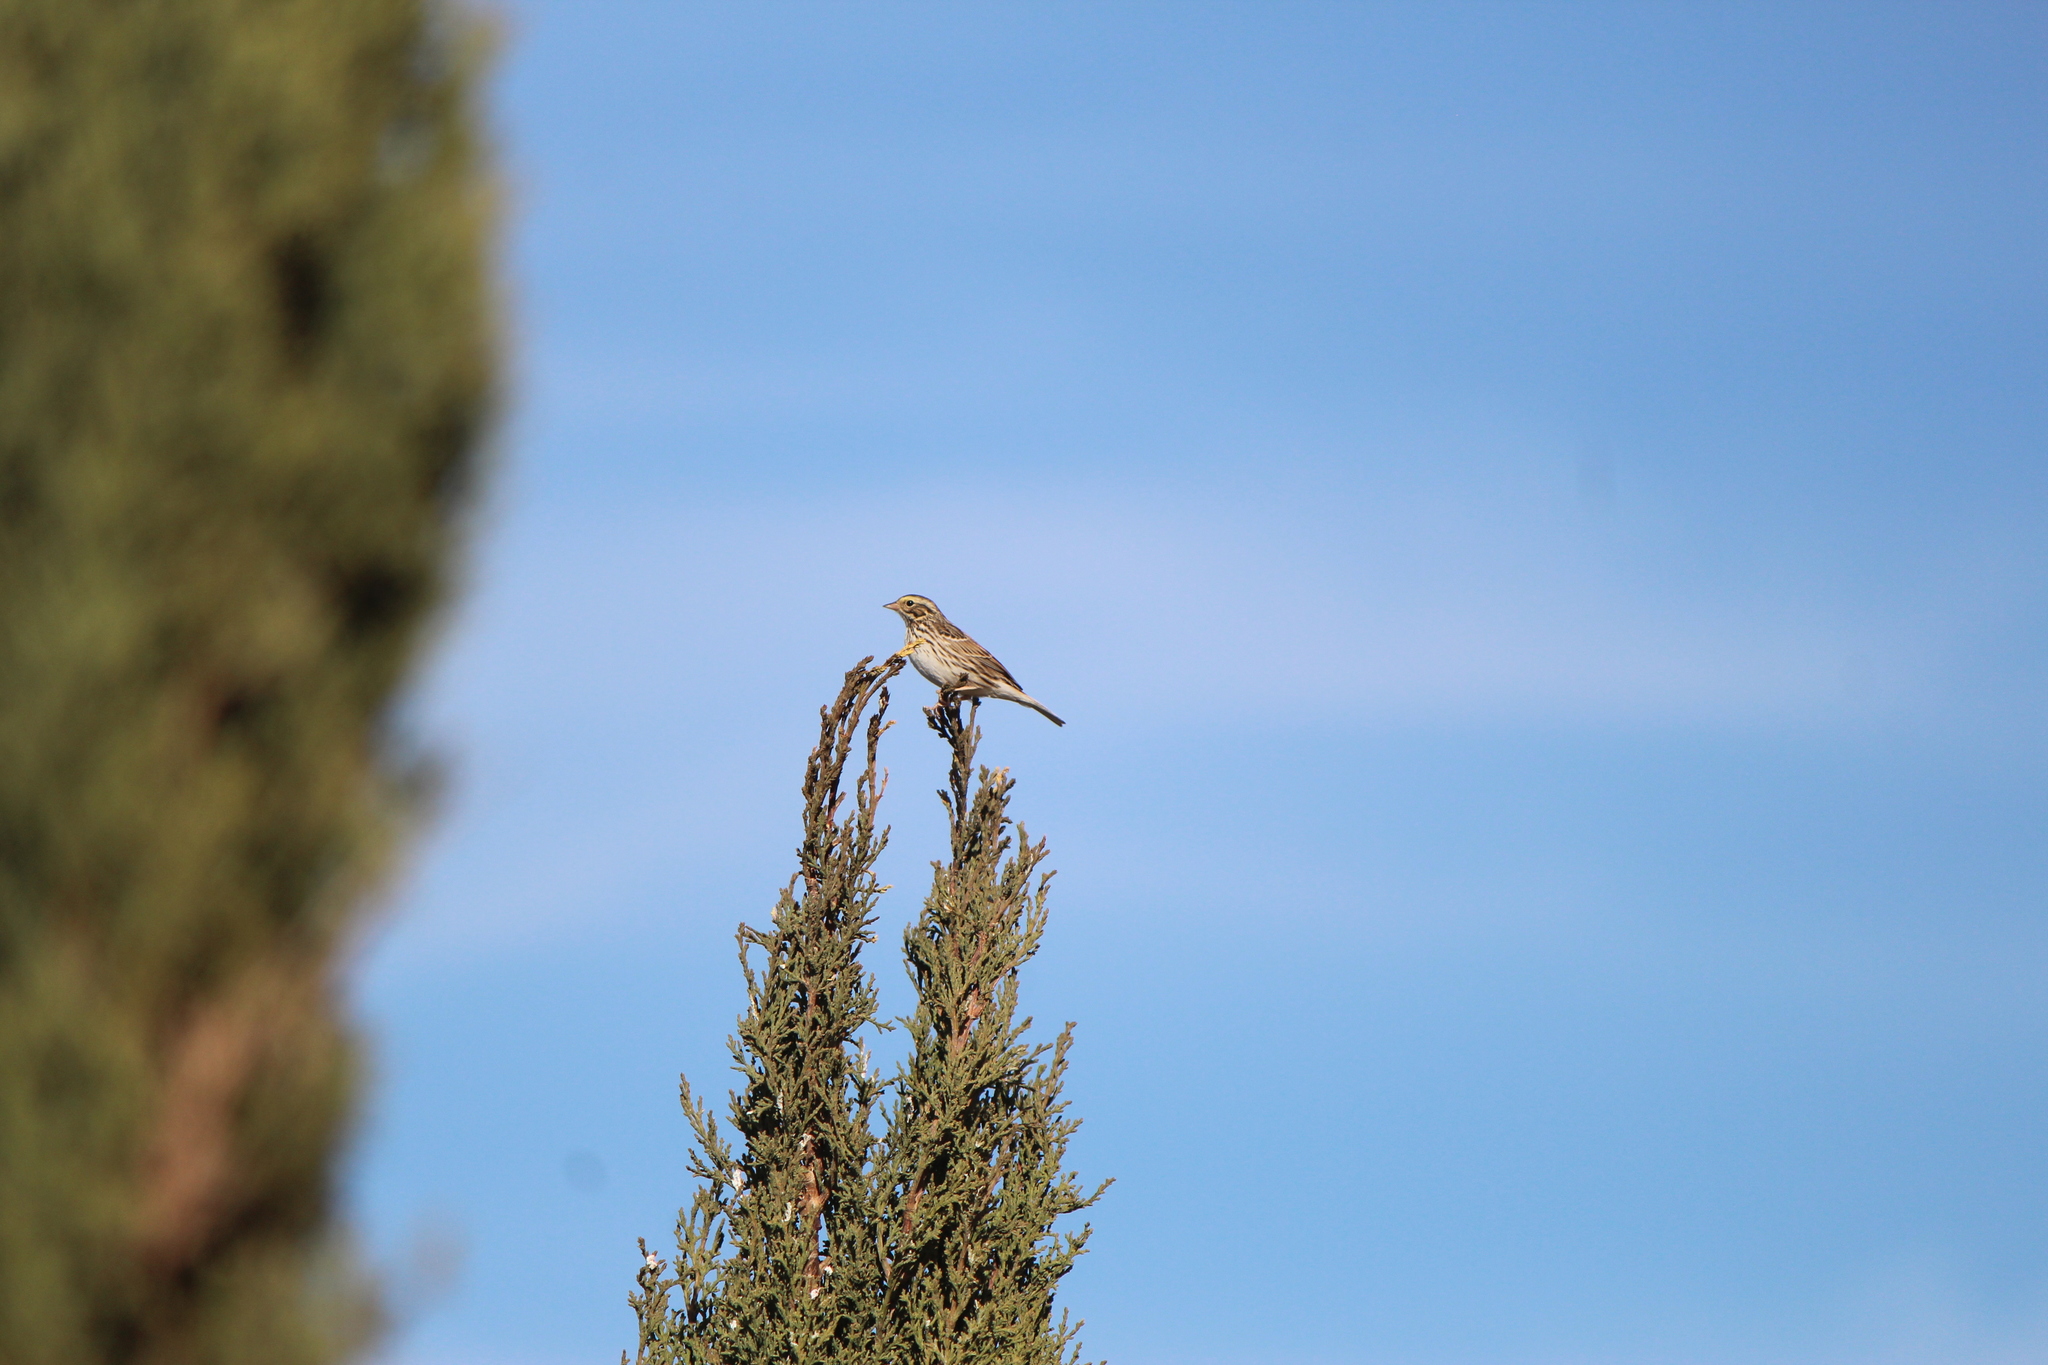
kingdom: Animalia
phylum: Chordata
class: Aves
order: Passeriformes
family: Passerellidae
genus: Passerculus
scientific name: Passerculus sandwichensis
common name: Savannah sparrow
